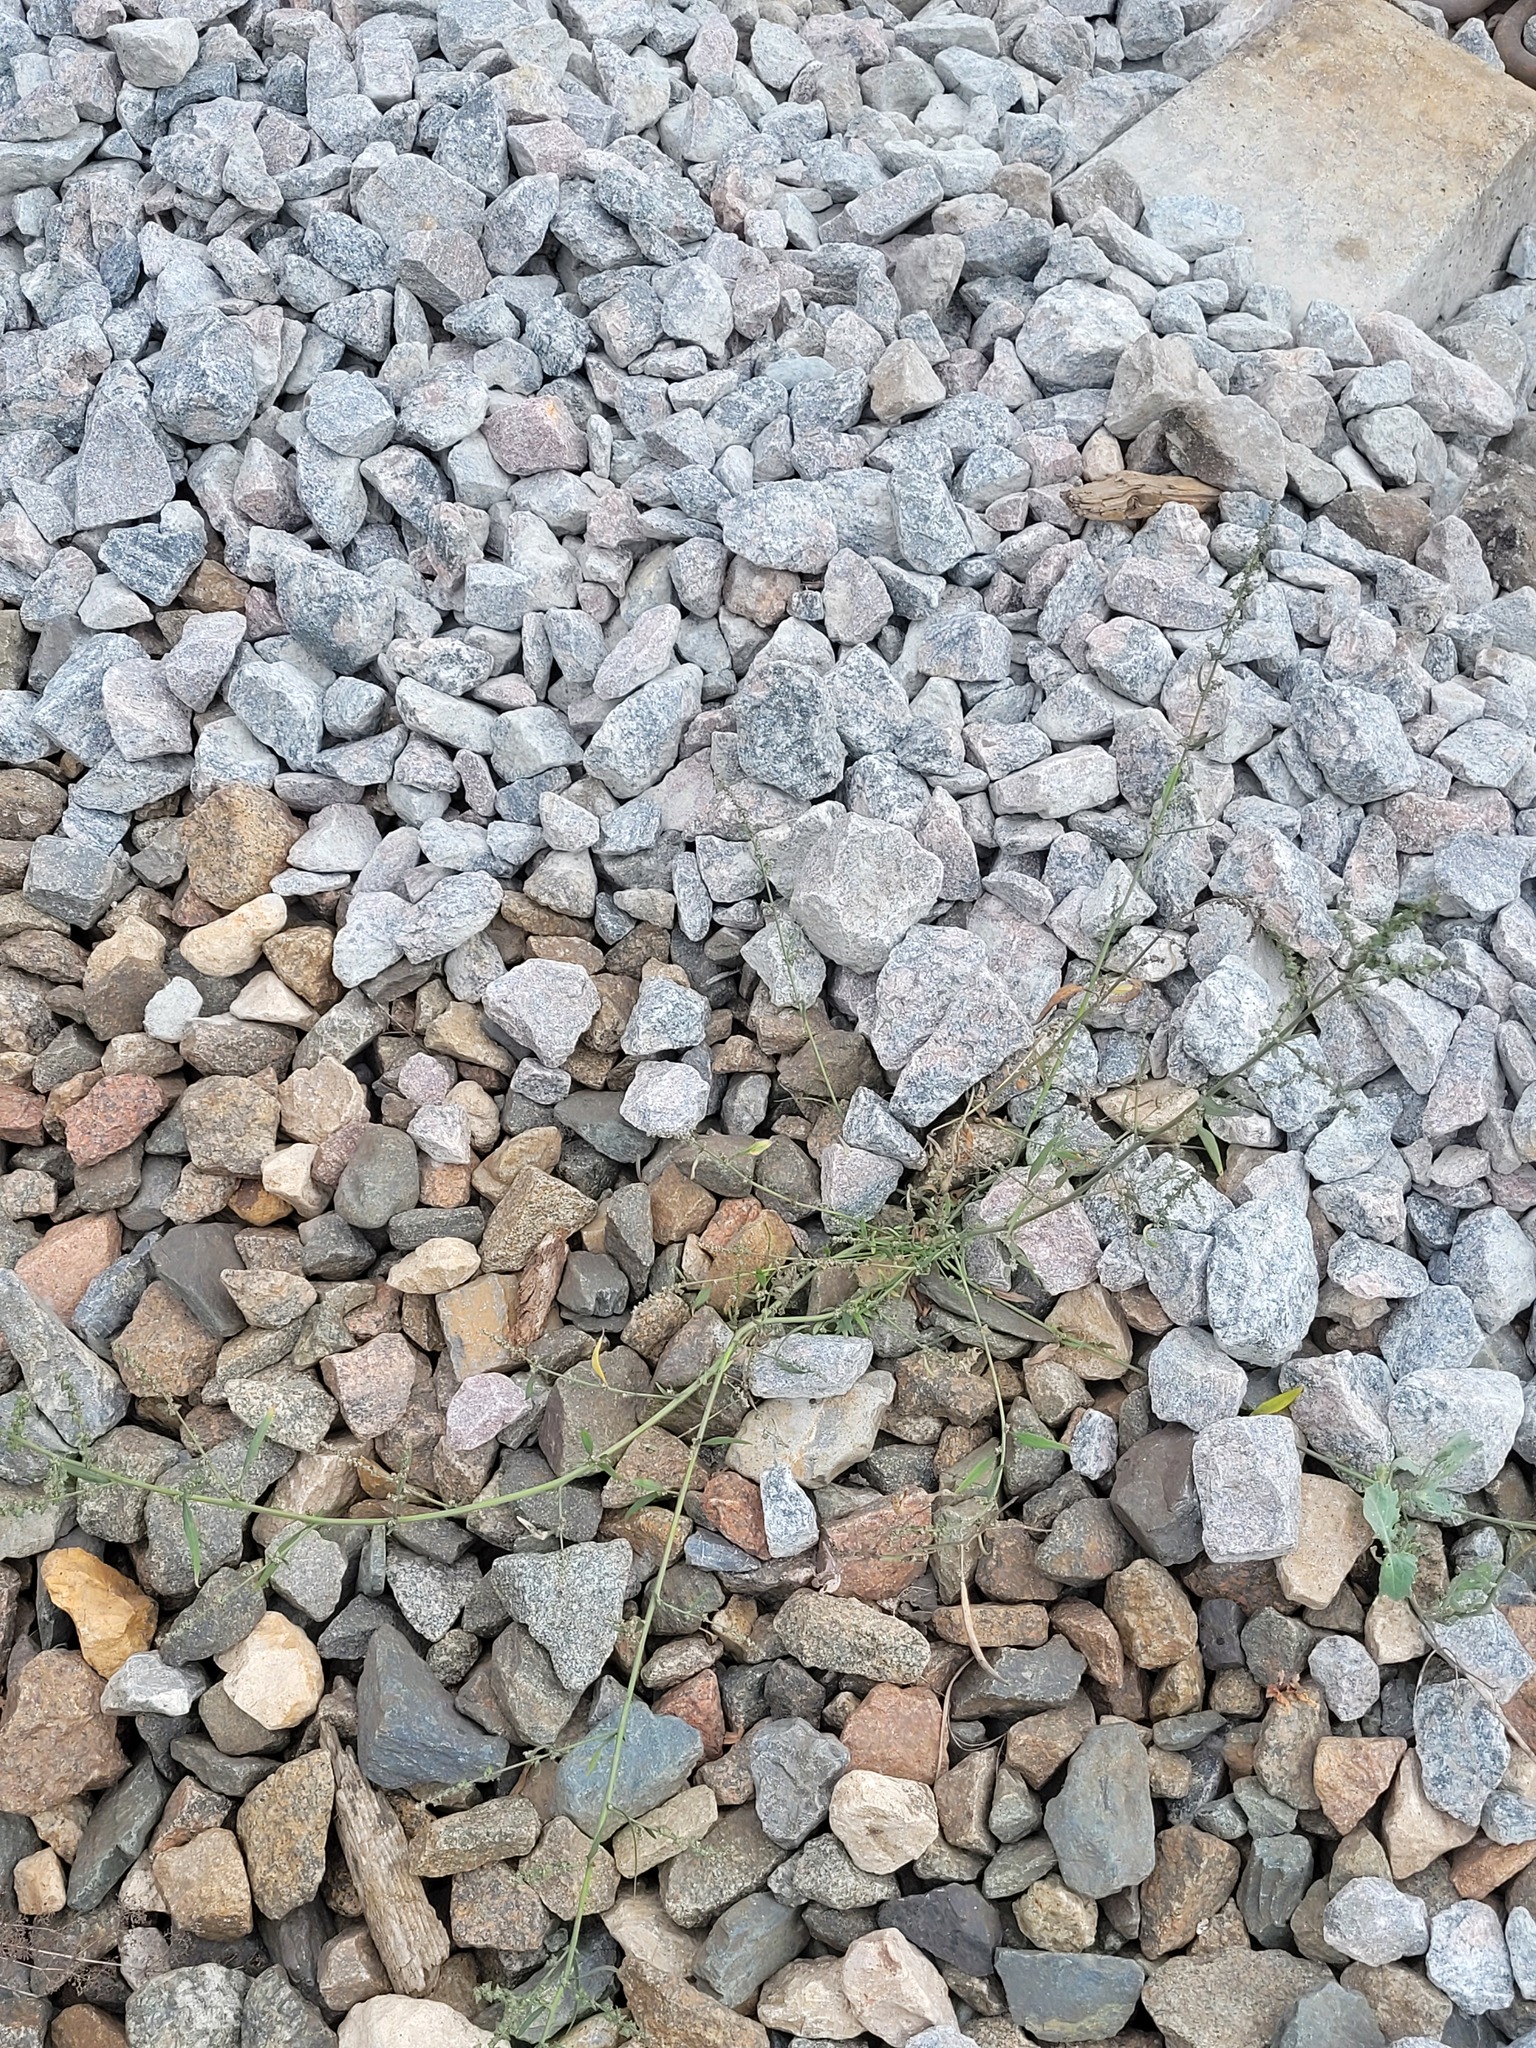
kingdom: Plantae
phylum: Tracheophyta
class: Magnoliopsida
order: Caryophyllales
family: Amaranthaceae
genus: Atriplex
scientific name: Atriplex patula
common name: Common orache
